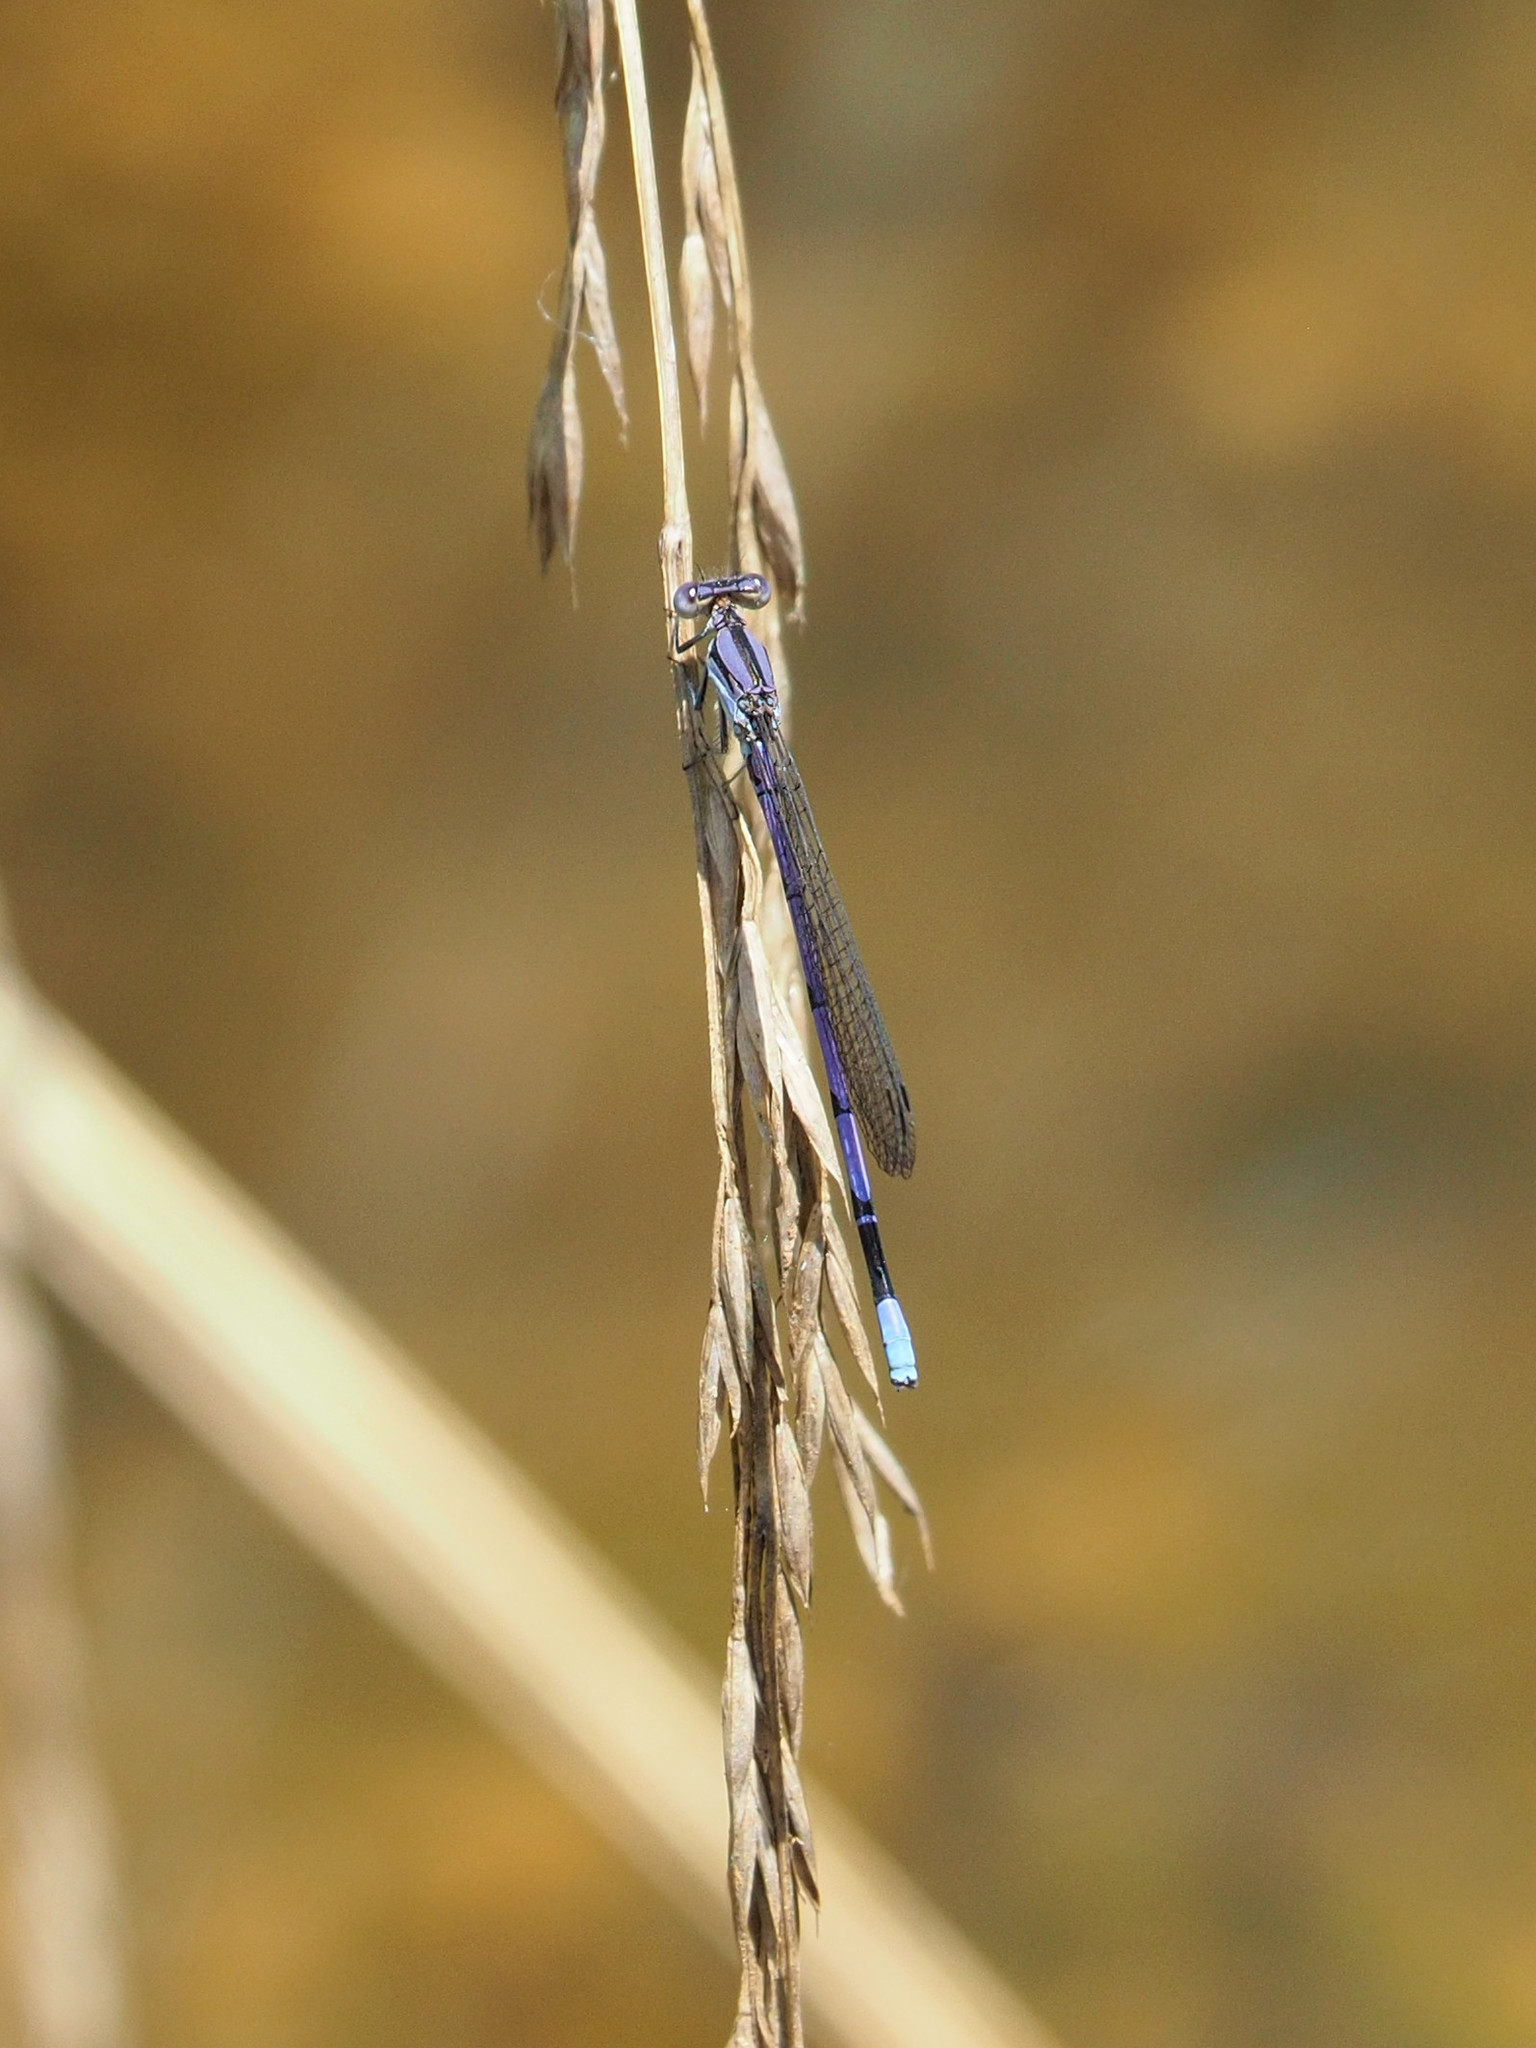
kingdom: Animalia
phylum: Arthropoda
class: Insecta
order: Odonata
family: Coenagrionidae
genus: Argia
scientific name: Argia fumipennis
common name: Variable dancer
